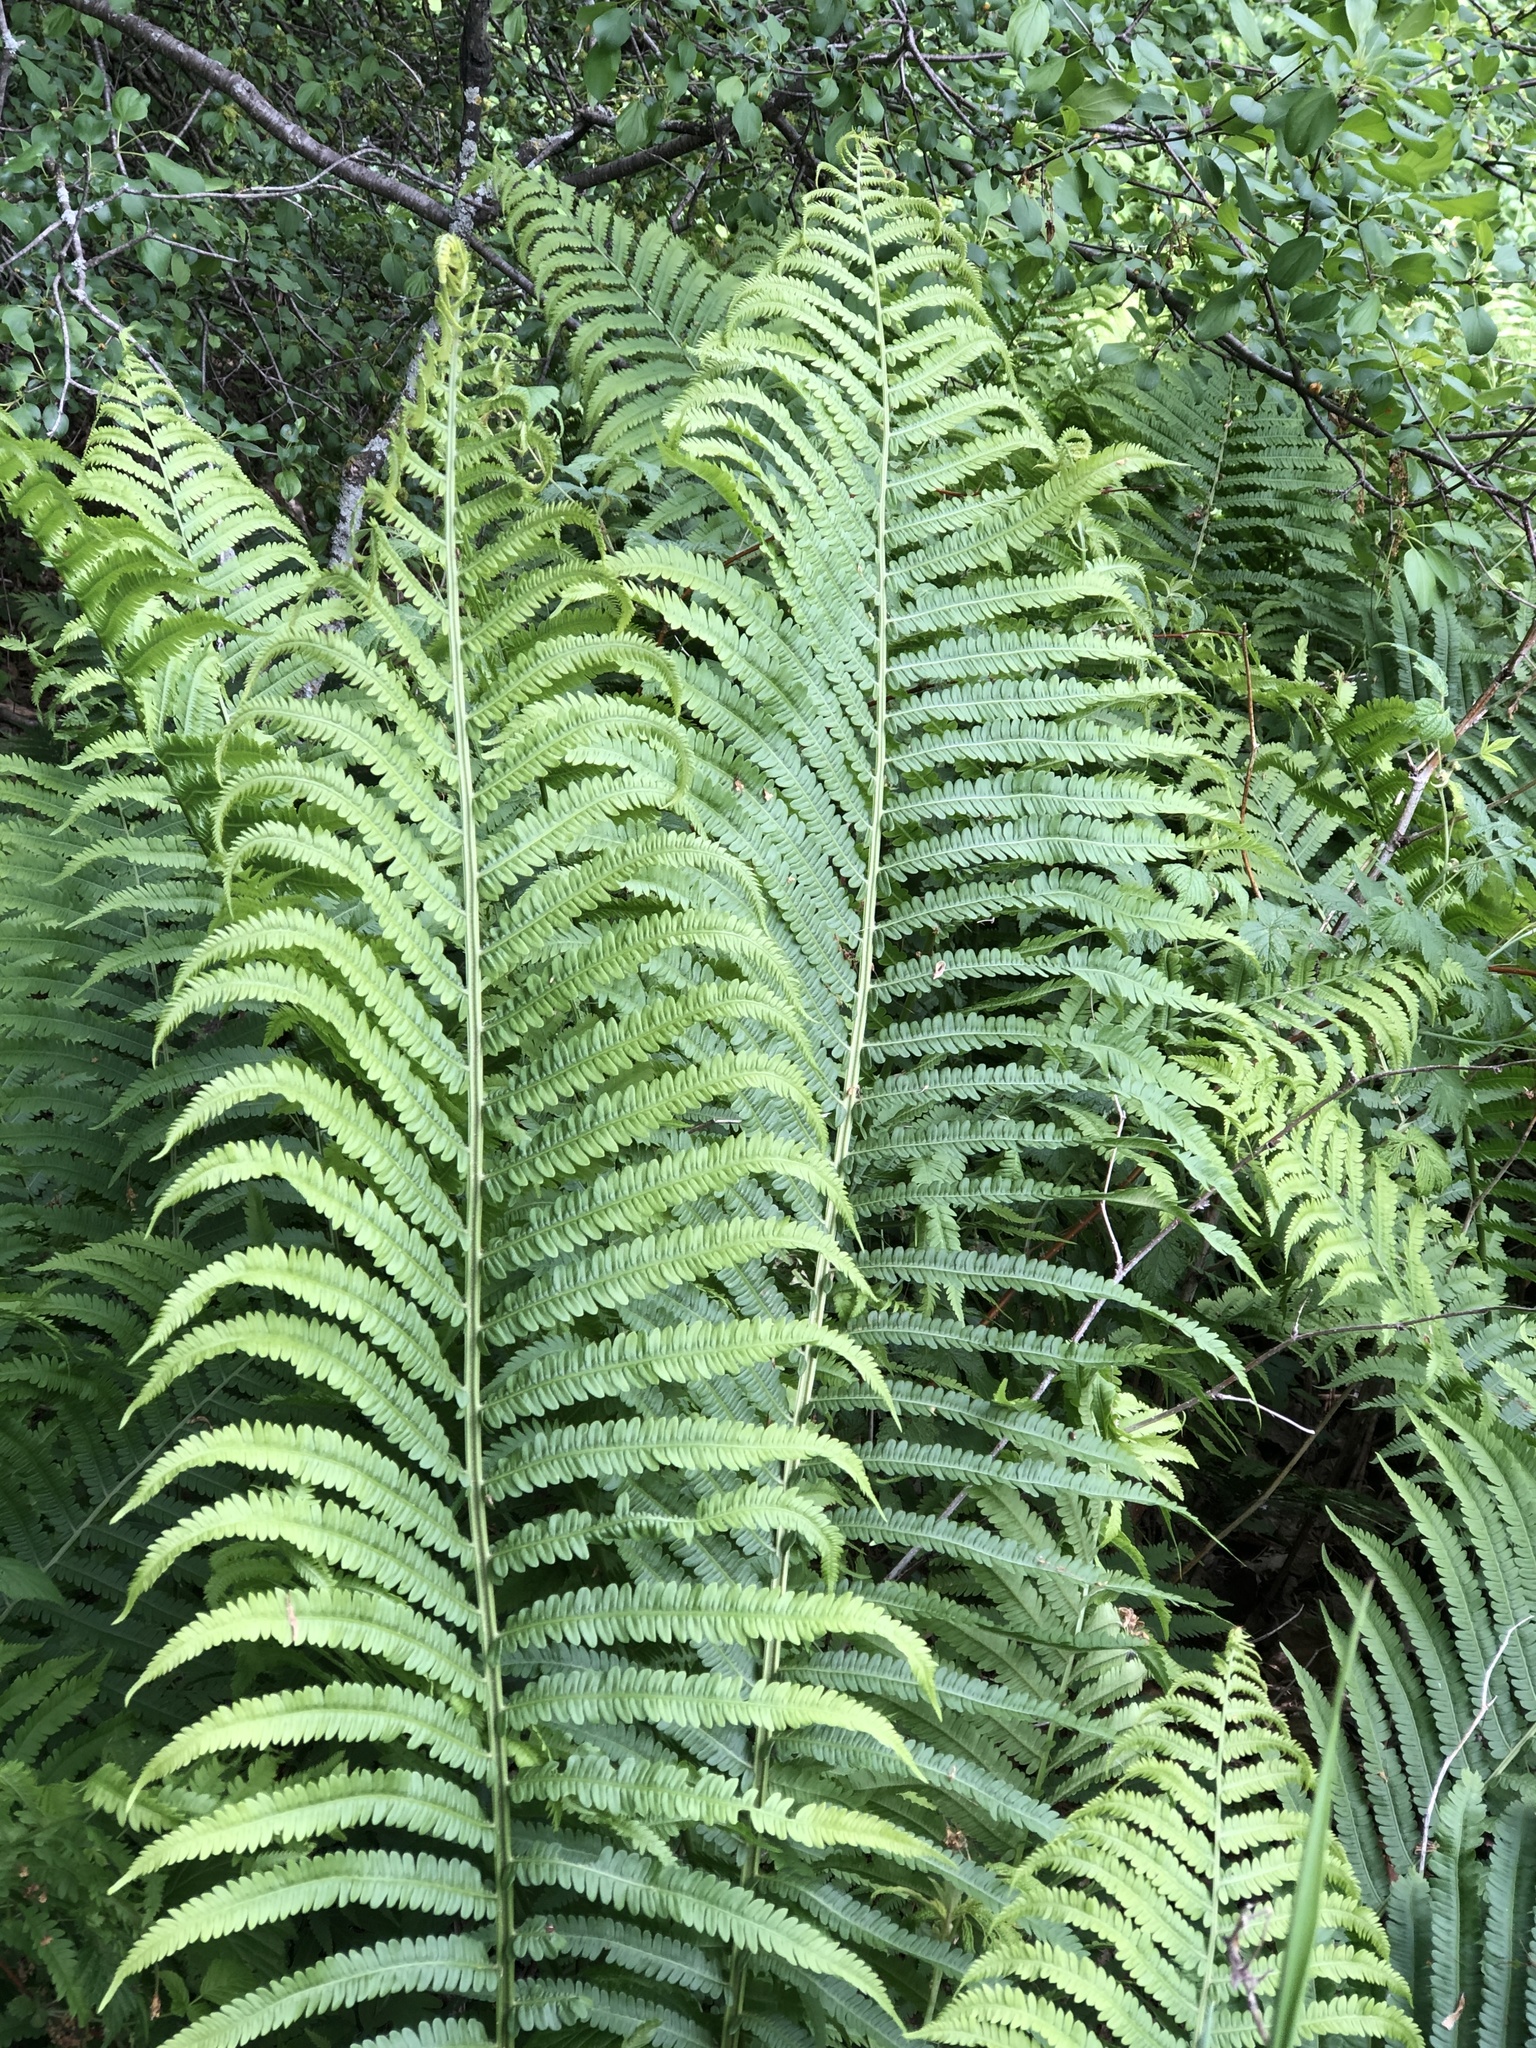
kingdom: Plantae
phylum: Tracheophyta
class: Polypodiopsida
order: Polypodiales
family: Onocleaceae
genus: Matteuccia
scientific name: Matteuccia struthiopteris
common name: Ostrich fern
